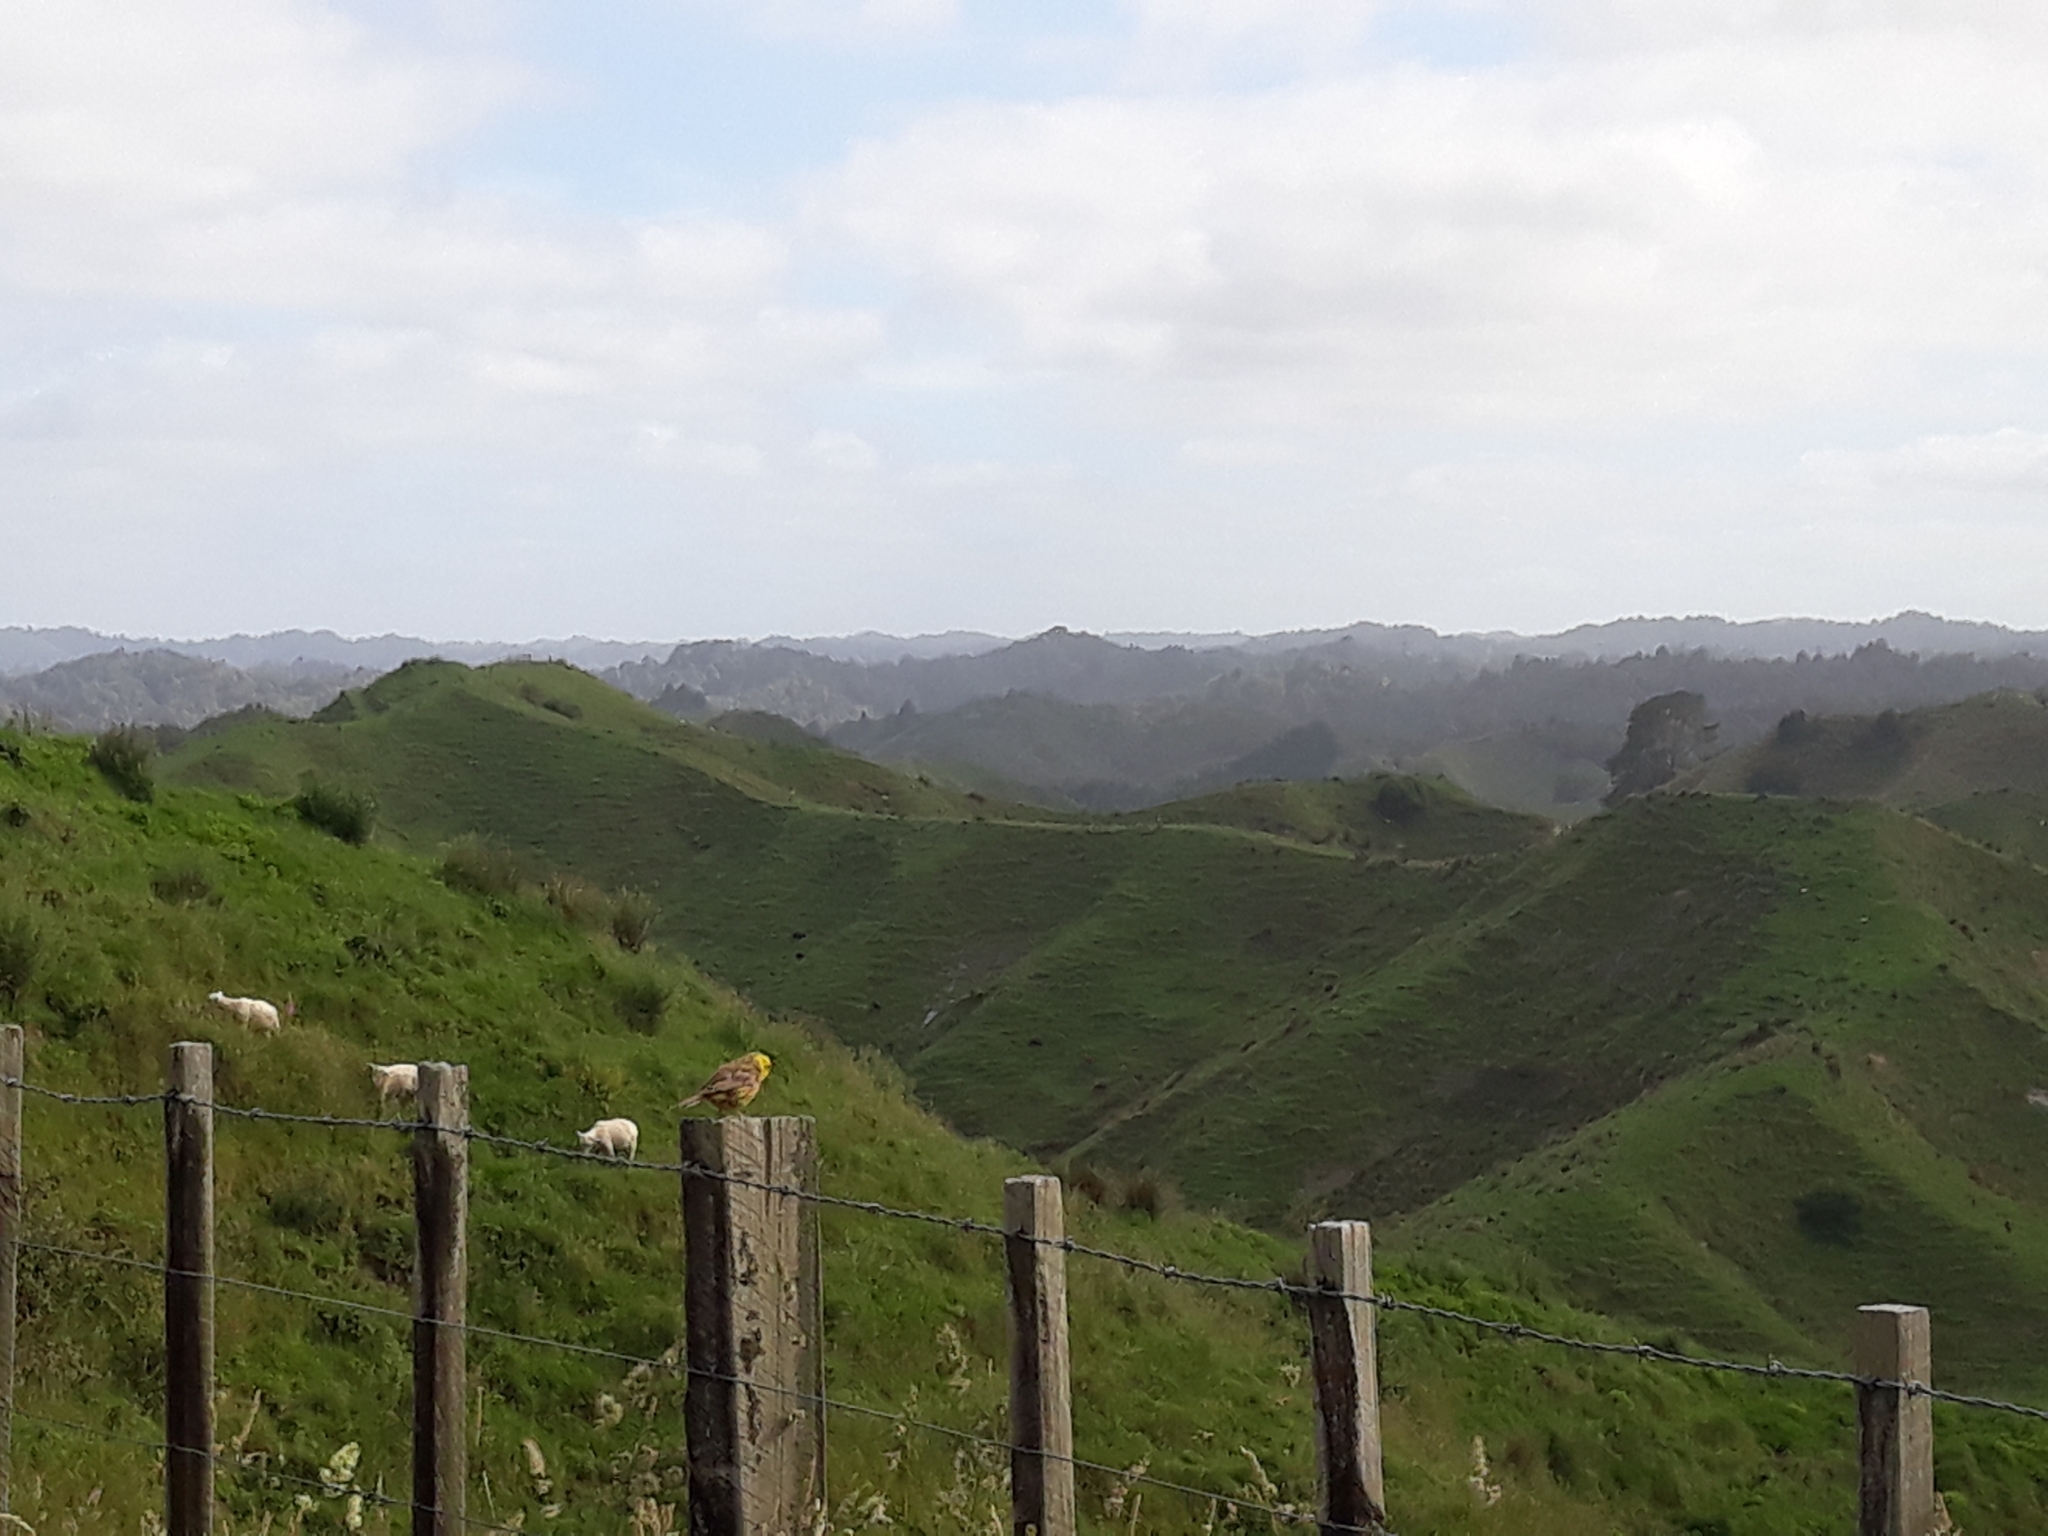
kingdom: Animalia
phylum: Chordata
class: Aves
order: Passeriformes
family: Emberizidae
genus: Emberiza
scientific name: Emberiza citrinella
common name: Yellowhammer
